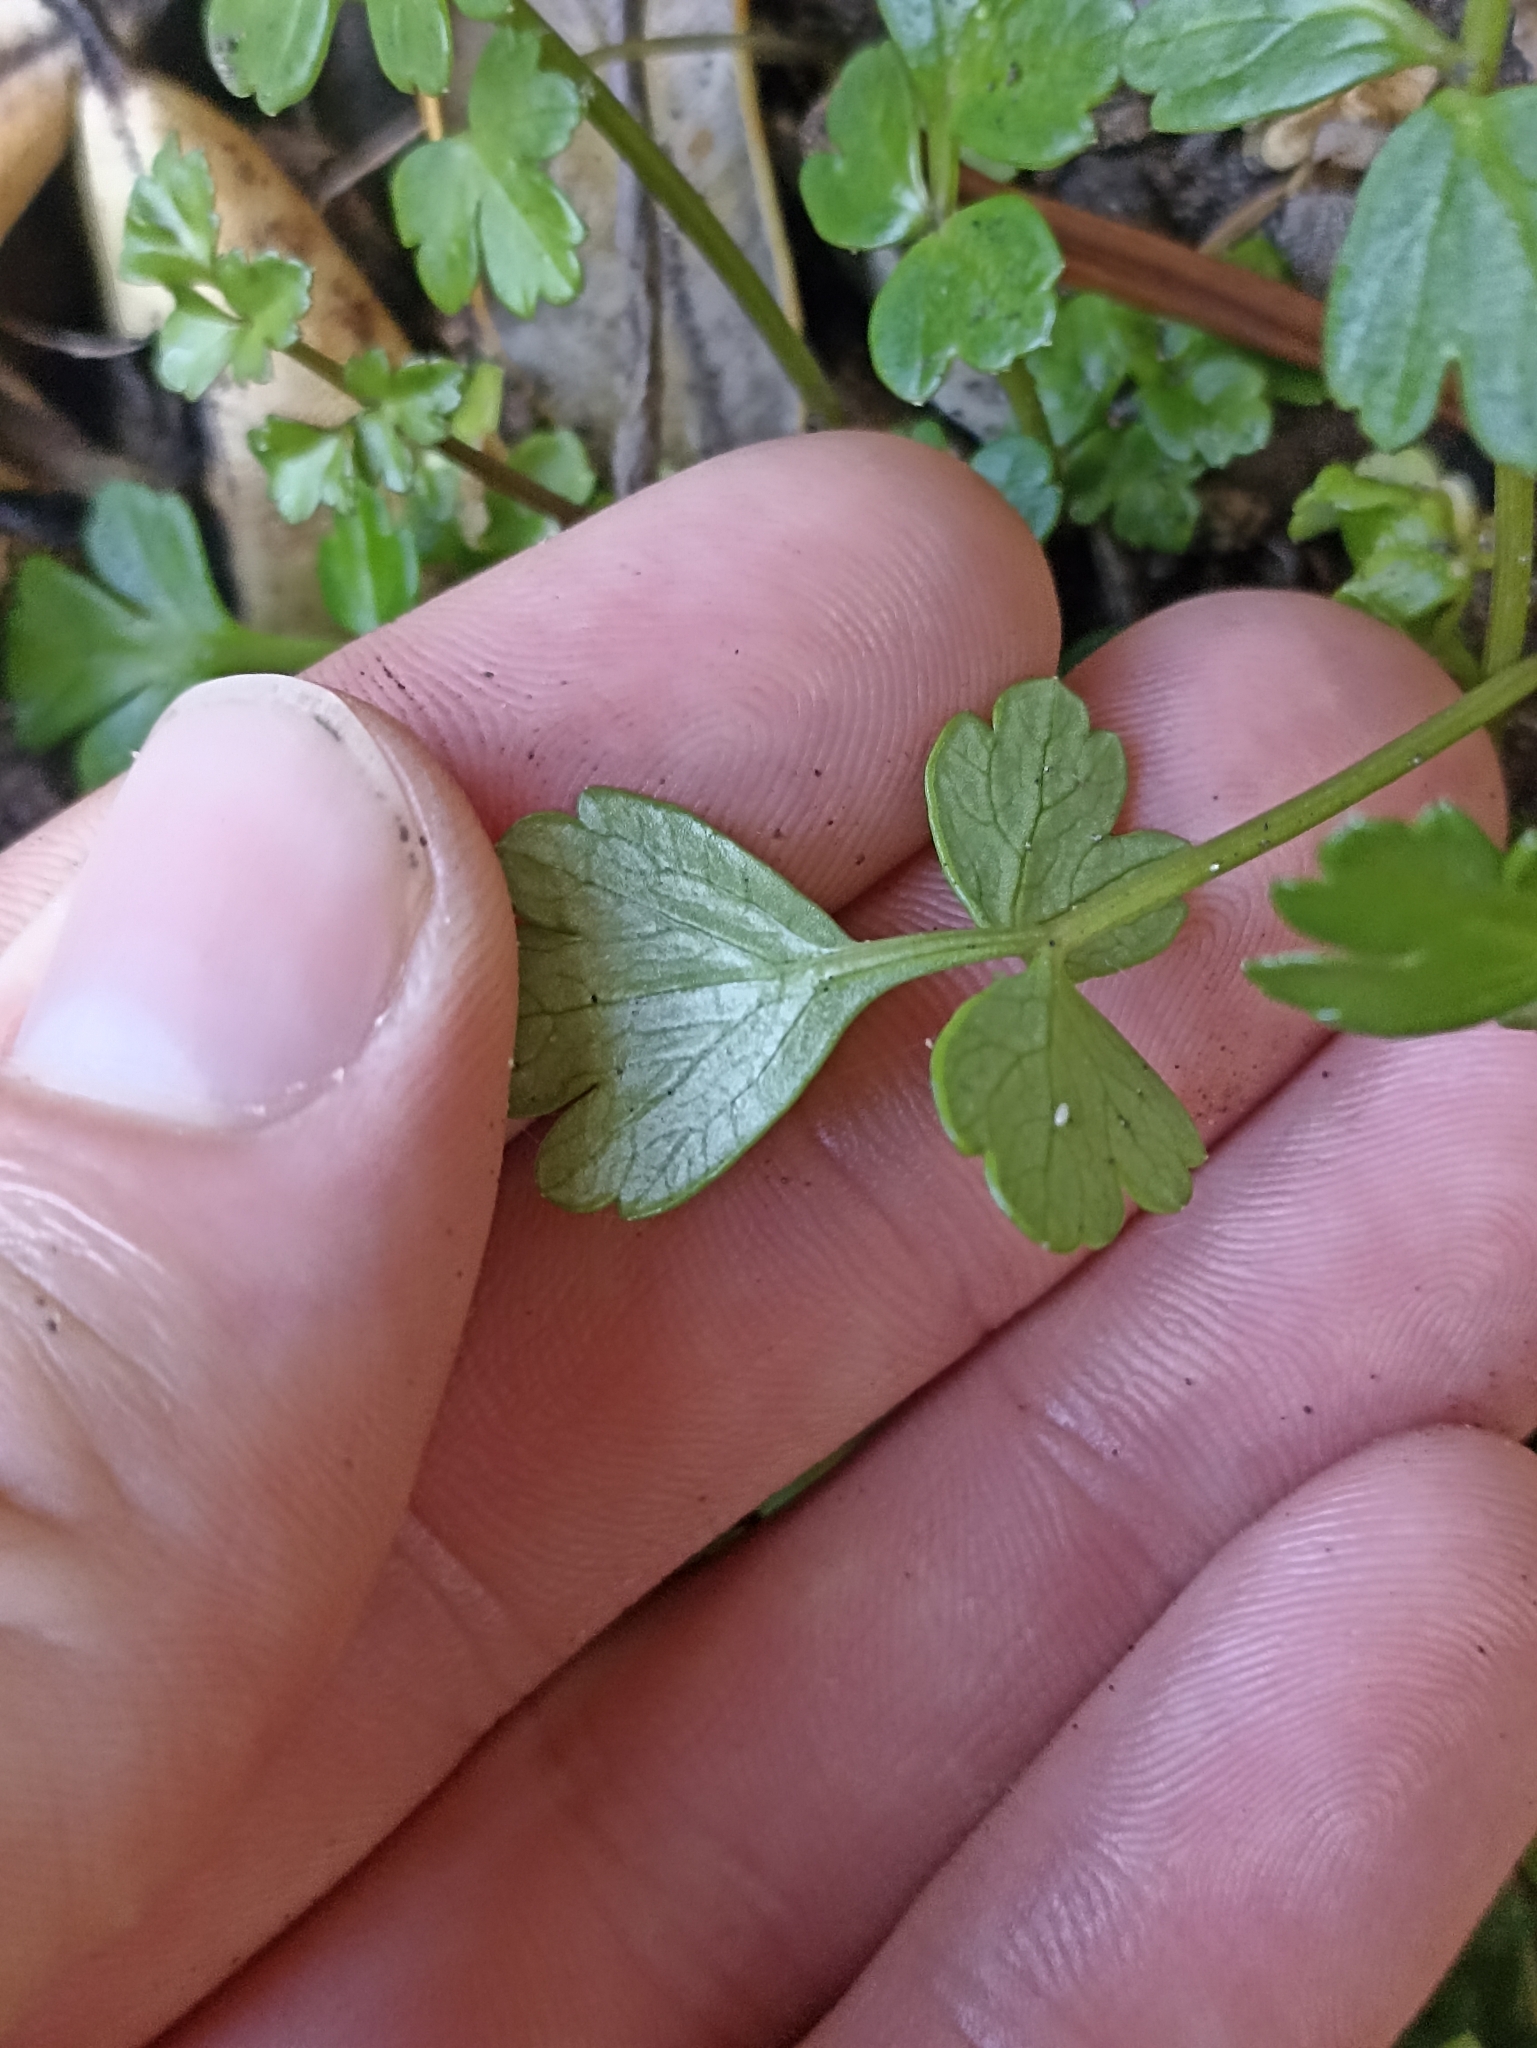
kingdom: Plantae
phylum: Tracheophyta
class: Magnoliopsida
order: Apiales
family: Apiaceae
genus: Apium
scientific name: Apium prostratum
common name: Prostrate marshwort
